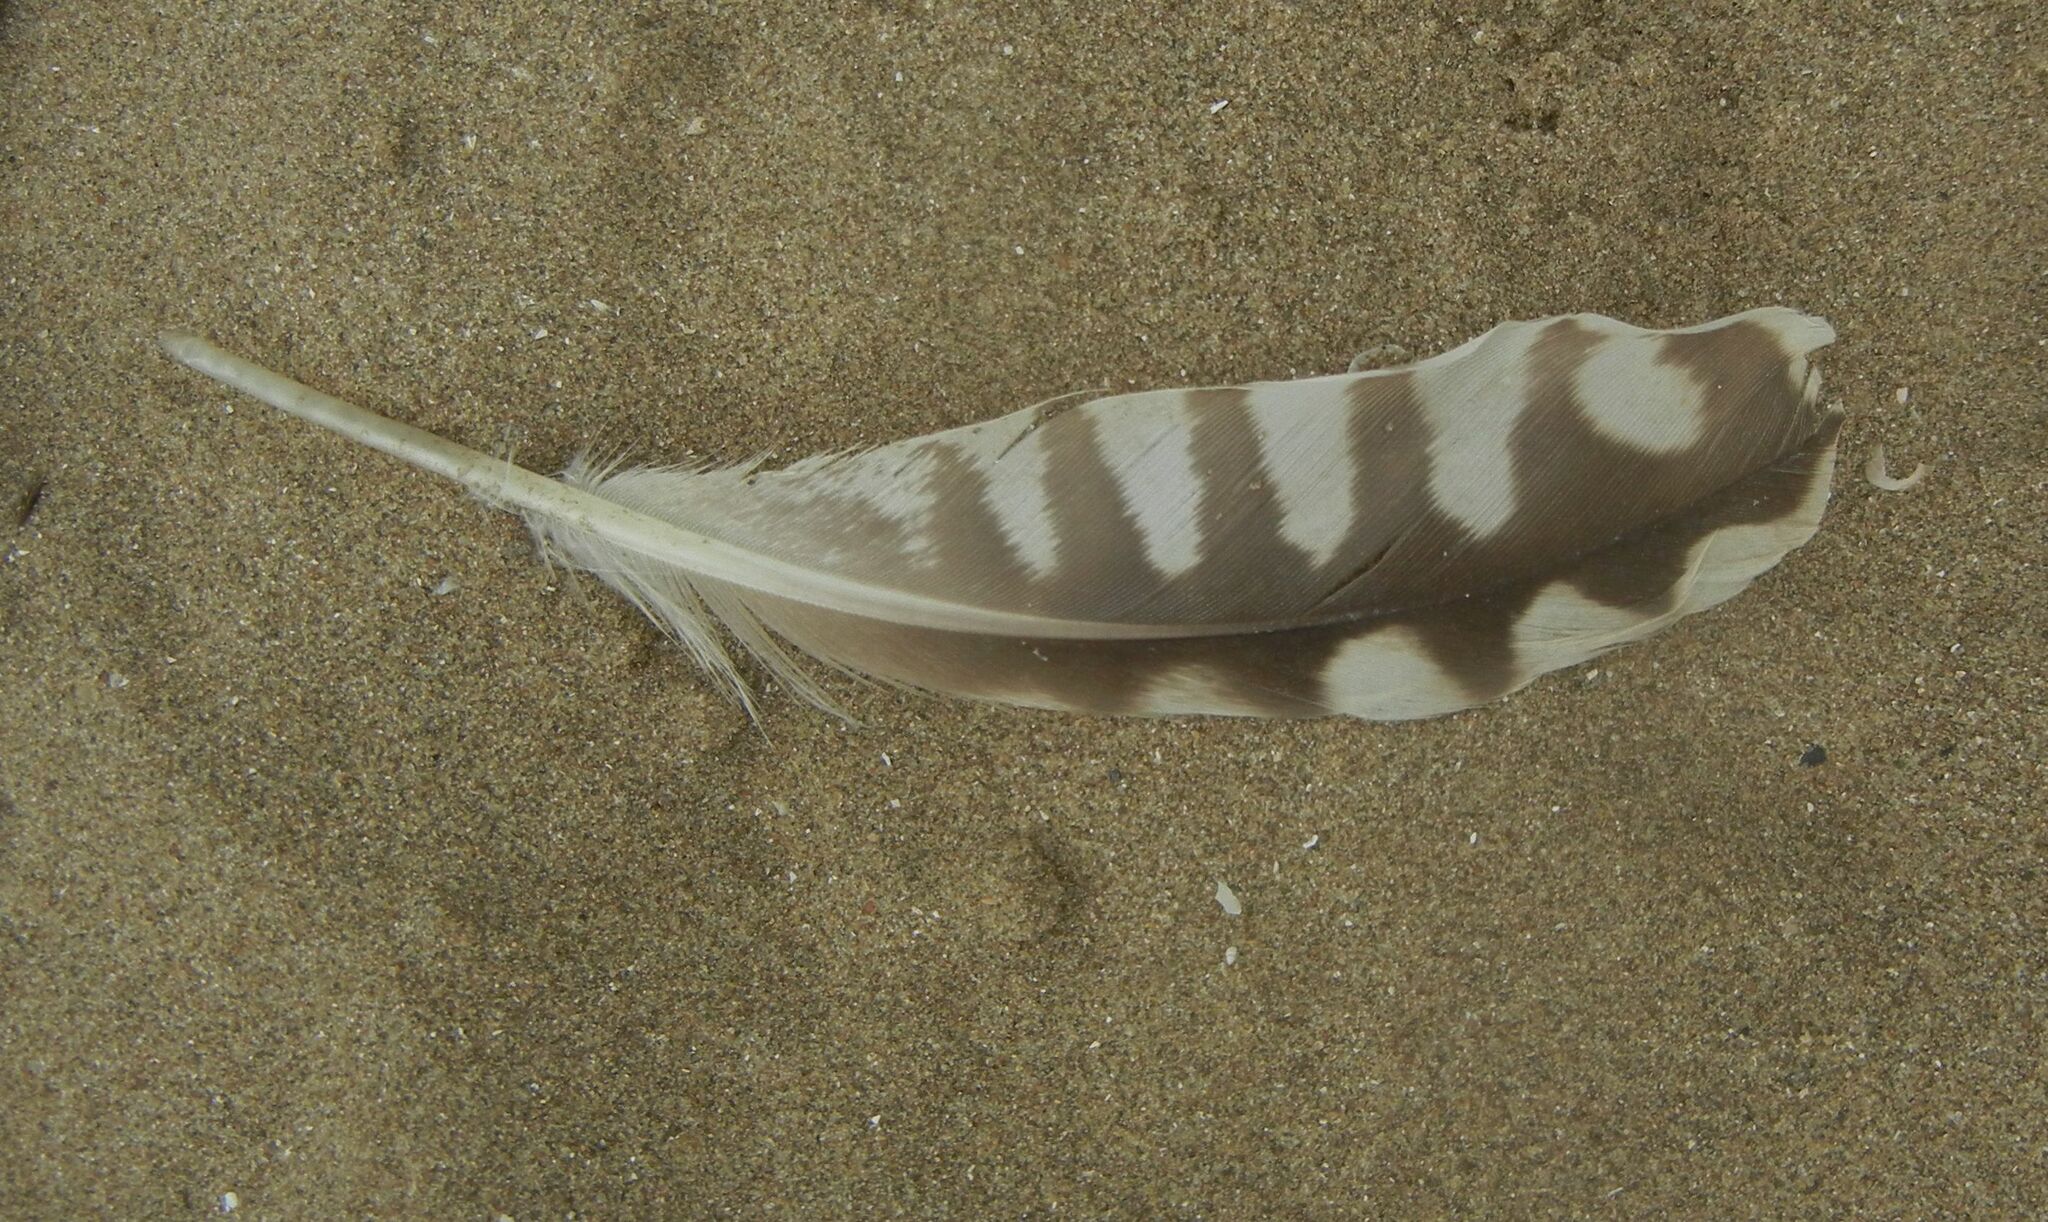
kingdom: Animalia
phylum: Chordata
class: Aves
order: Charadriiformes
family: Scolopacidae
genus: Numenius
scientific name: Numenius arquata
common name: Eurasian curlew
